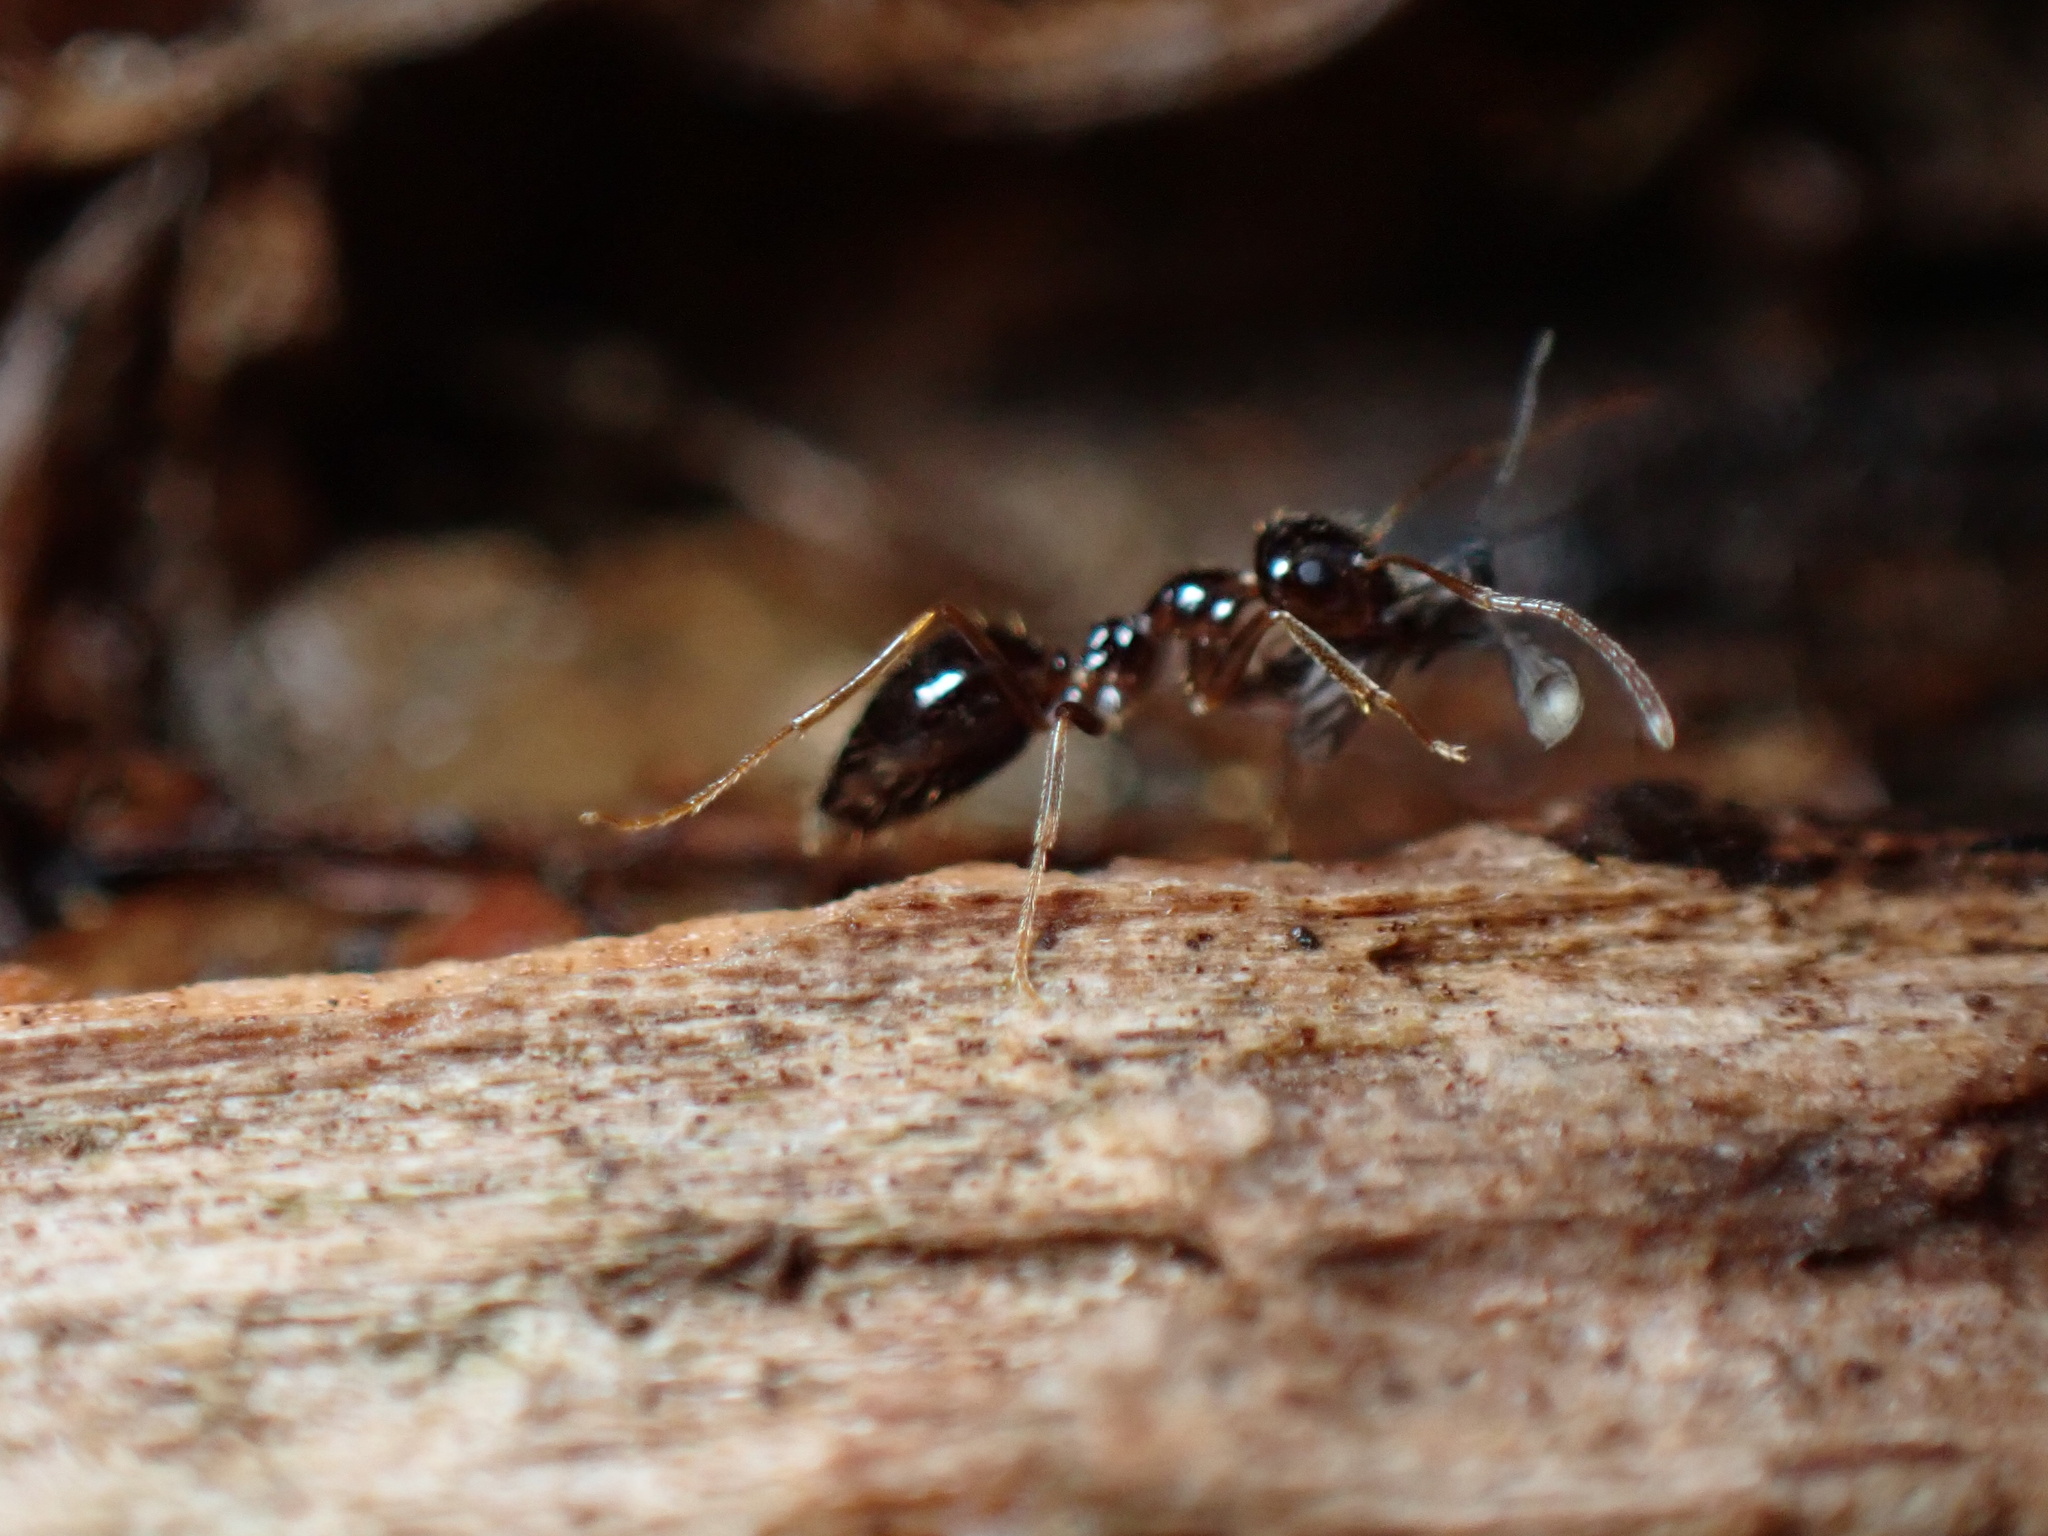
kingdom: Animalia
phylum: Arthropoda
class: Insecta
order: Hymenoptera
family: Formicidae
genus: Prenolepis
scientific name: Prenolepis imparis
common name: Small honey ant
